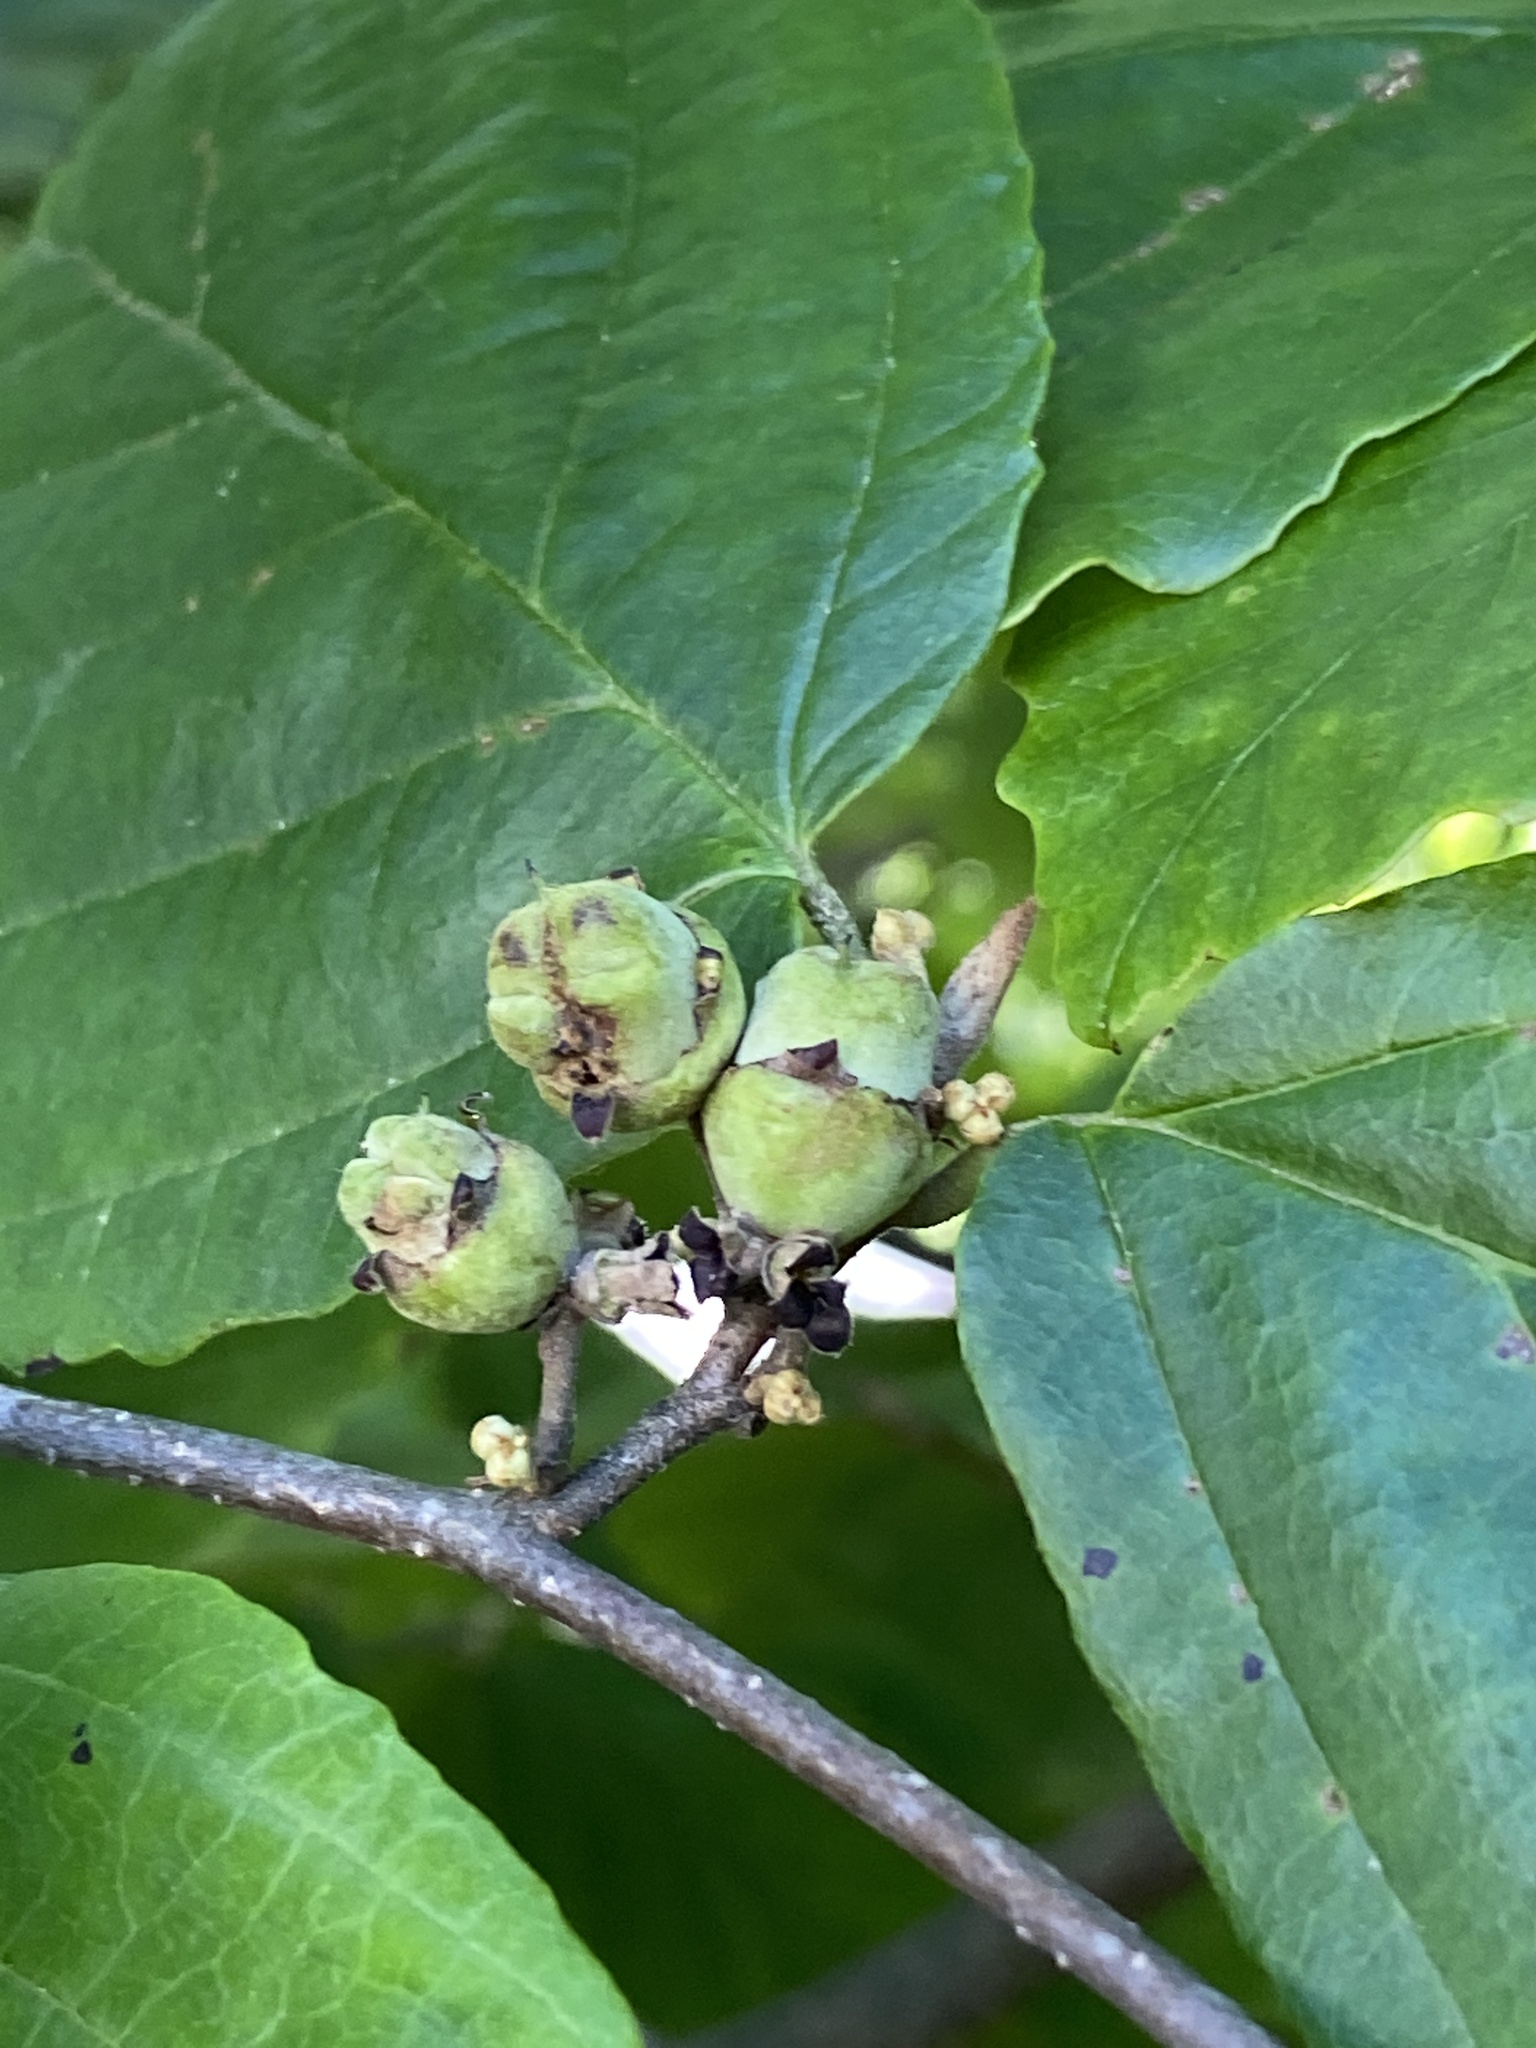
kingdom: Plantae
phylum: Tracheophyta
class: Magnoliopsida
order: Saxifragales
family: Hamamelidaceae
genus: Hamamelis
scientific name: Hamamelis virginiana
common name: Witch-hazel
